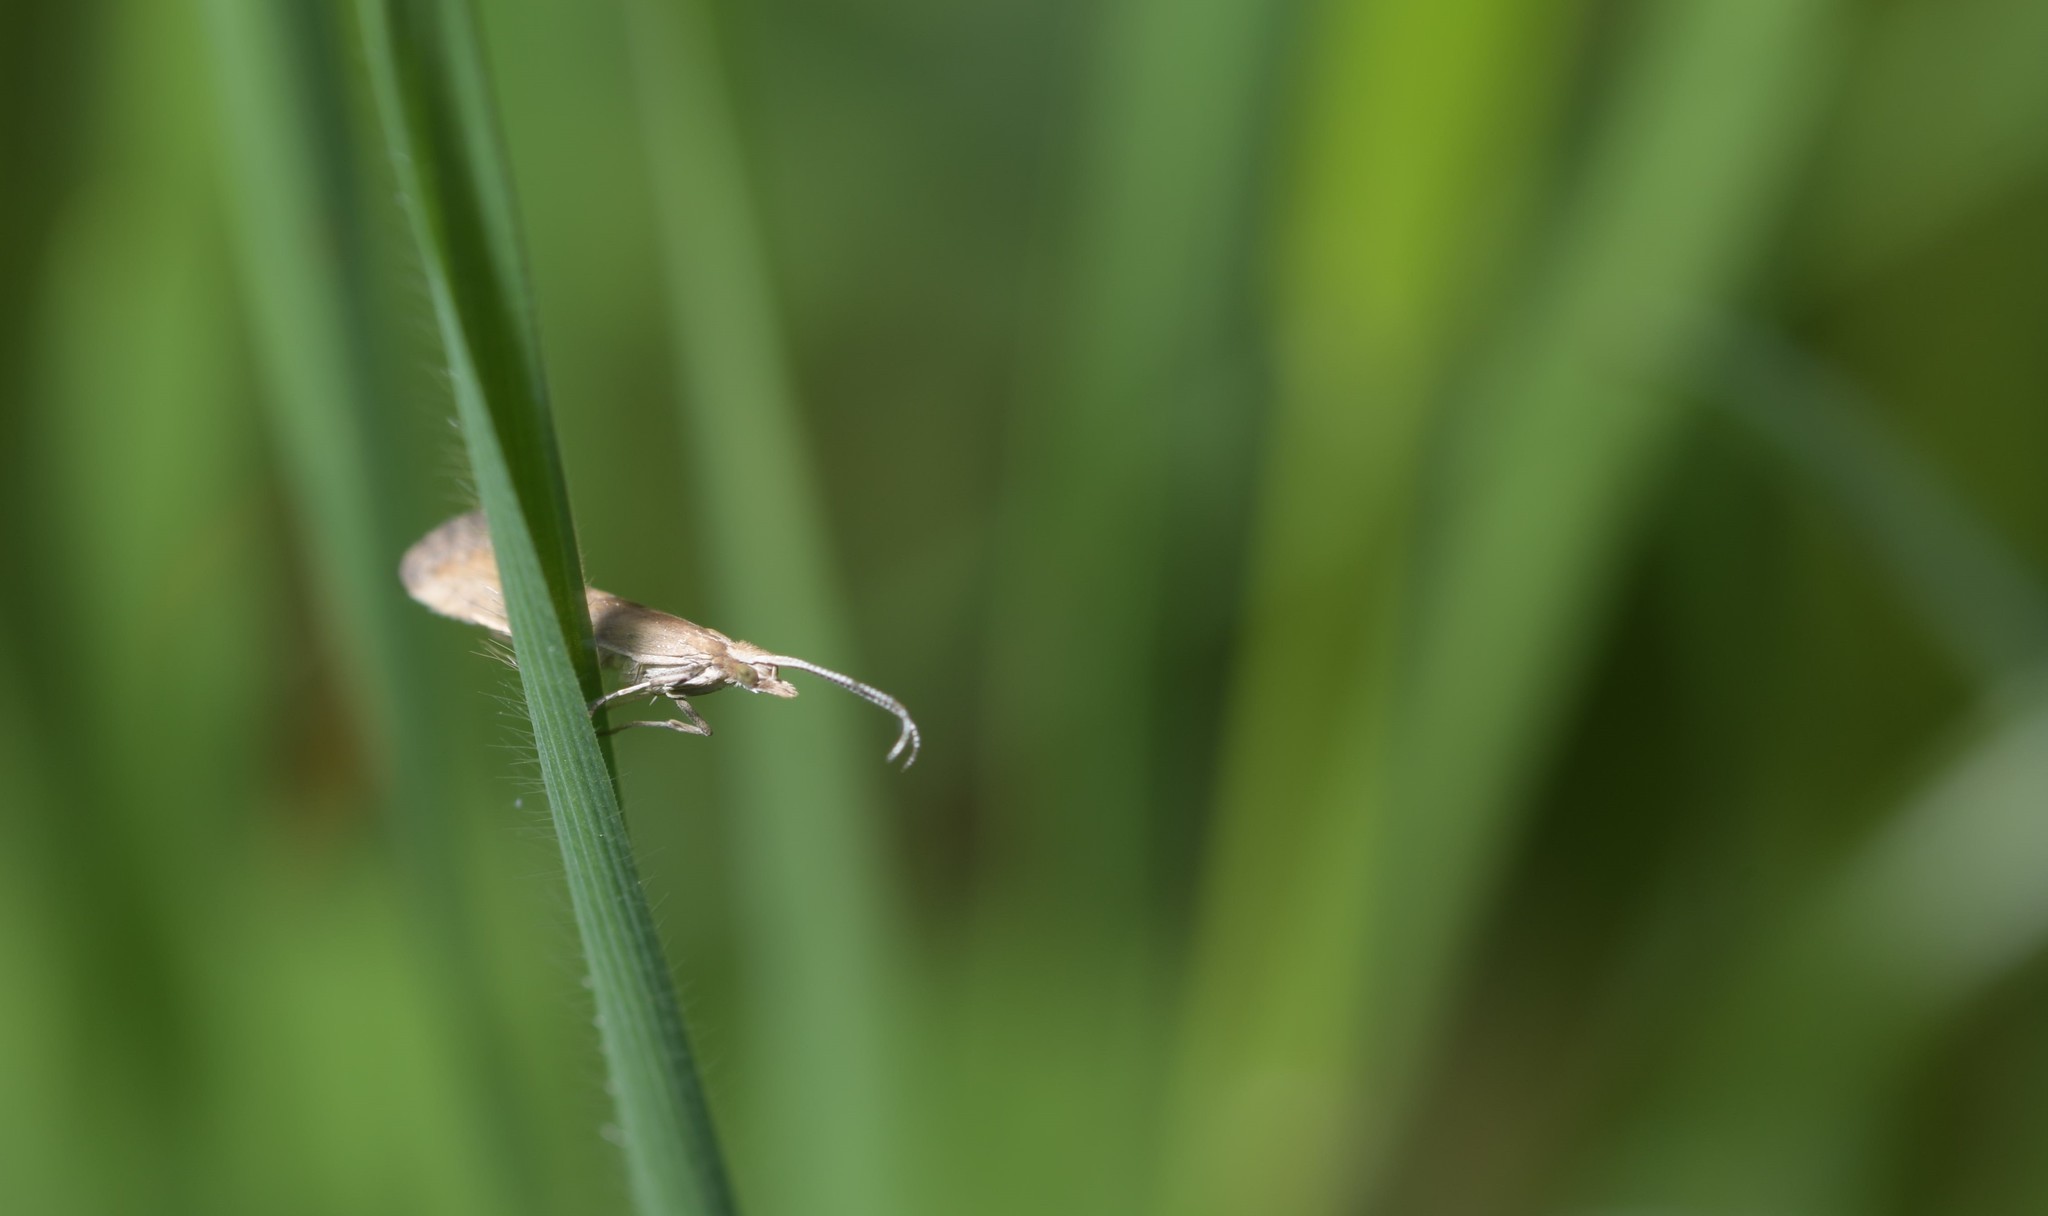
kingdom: Animalia
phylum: Arthropoda
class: Insecta
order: Lepidoptera
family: Plutellidae
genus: Plutella
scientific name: Plutella xylostella
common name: Diamond-back moth
